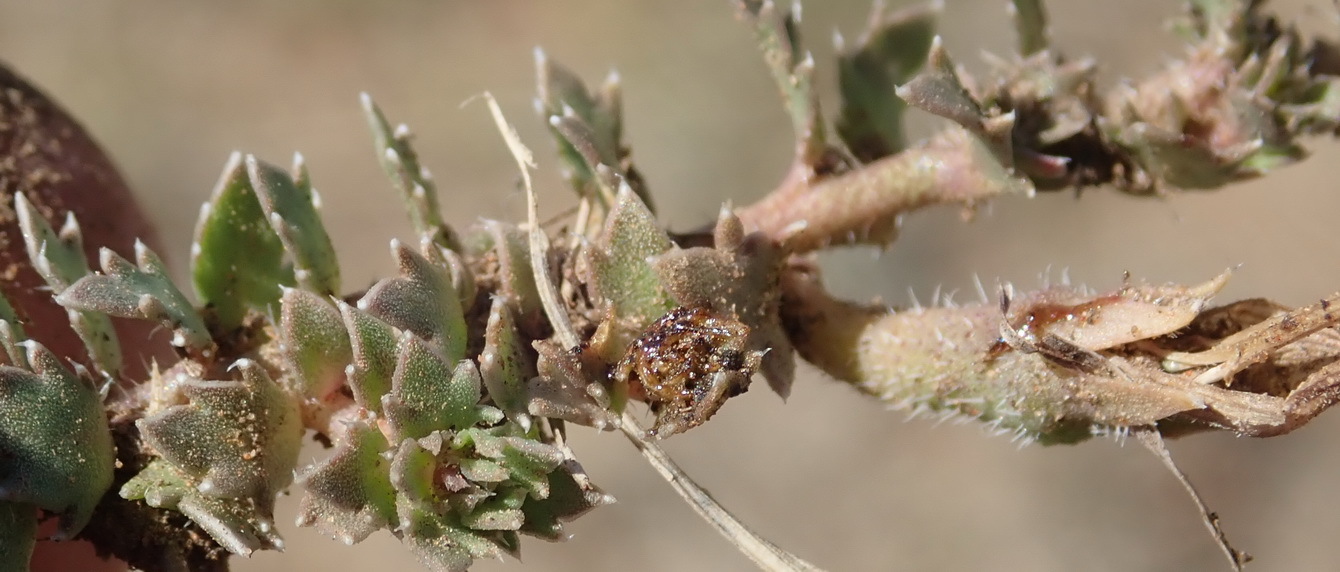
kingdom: Plantae
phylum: Tracheophyta
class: Magnoliopsida
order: Asterales
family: Campanulaceae
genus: Lobelia
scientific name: Lobelia thermalis
